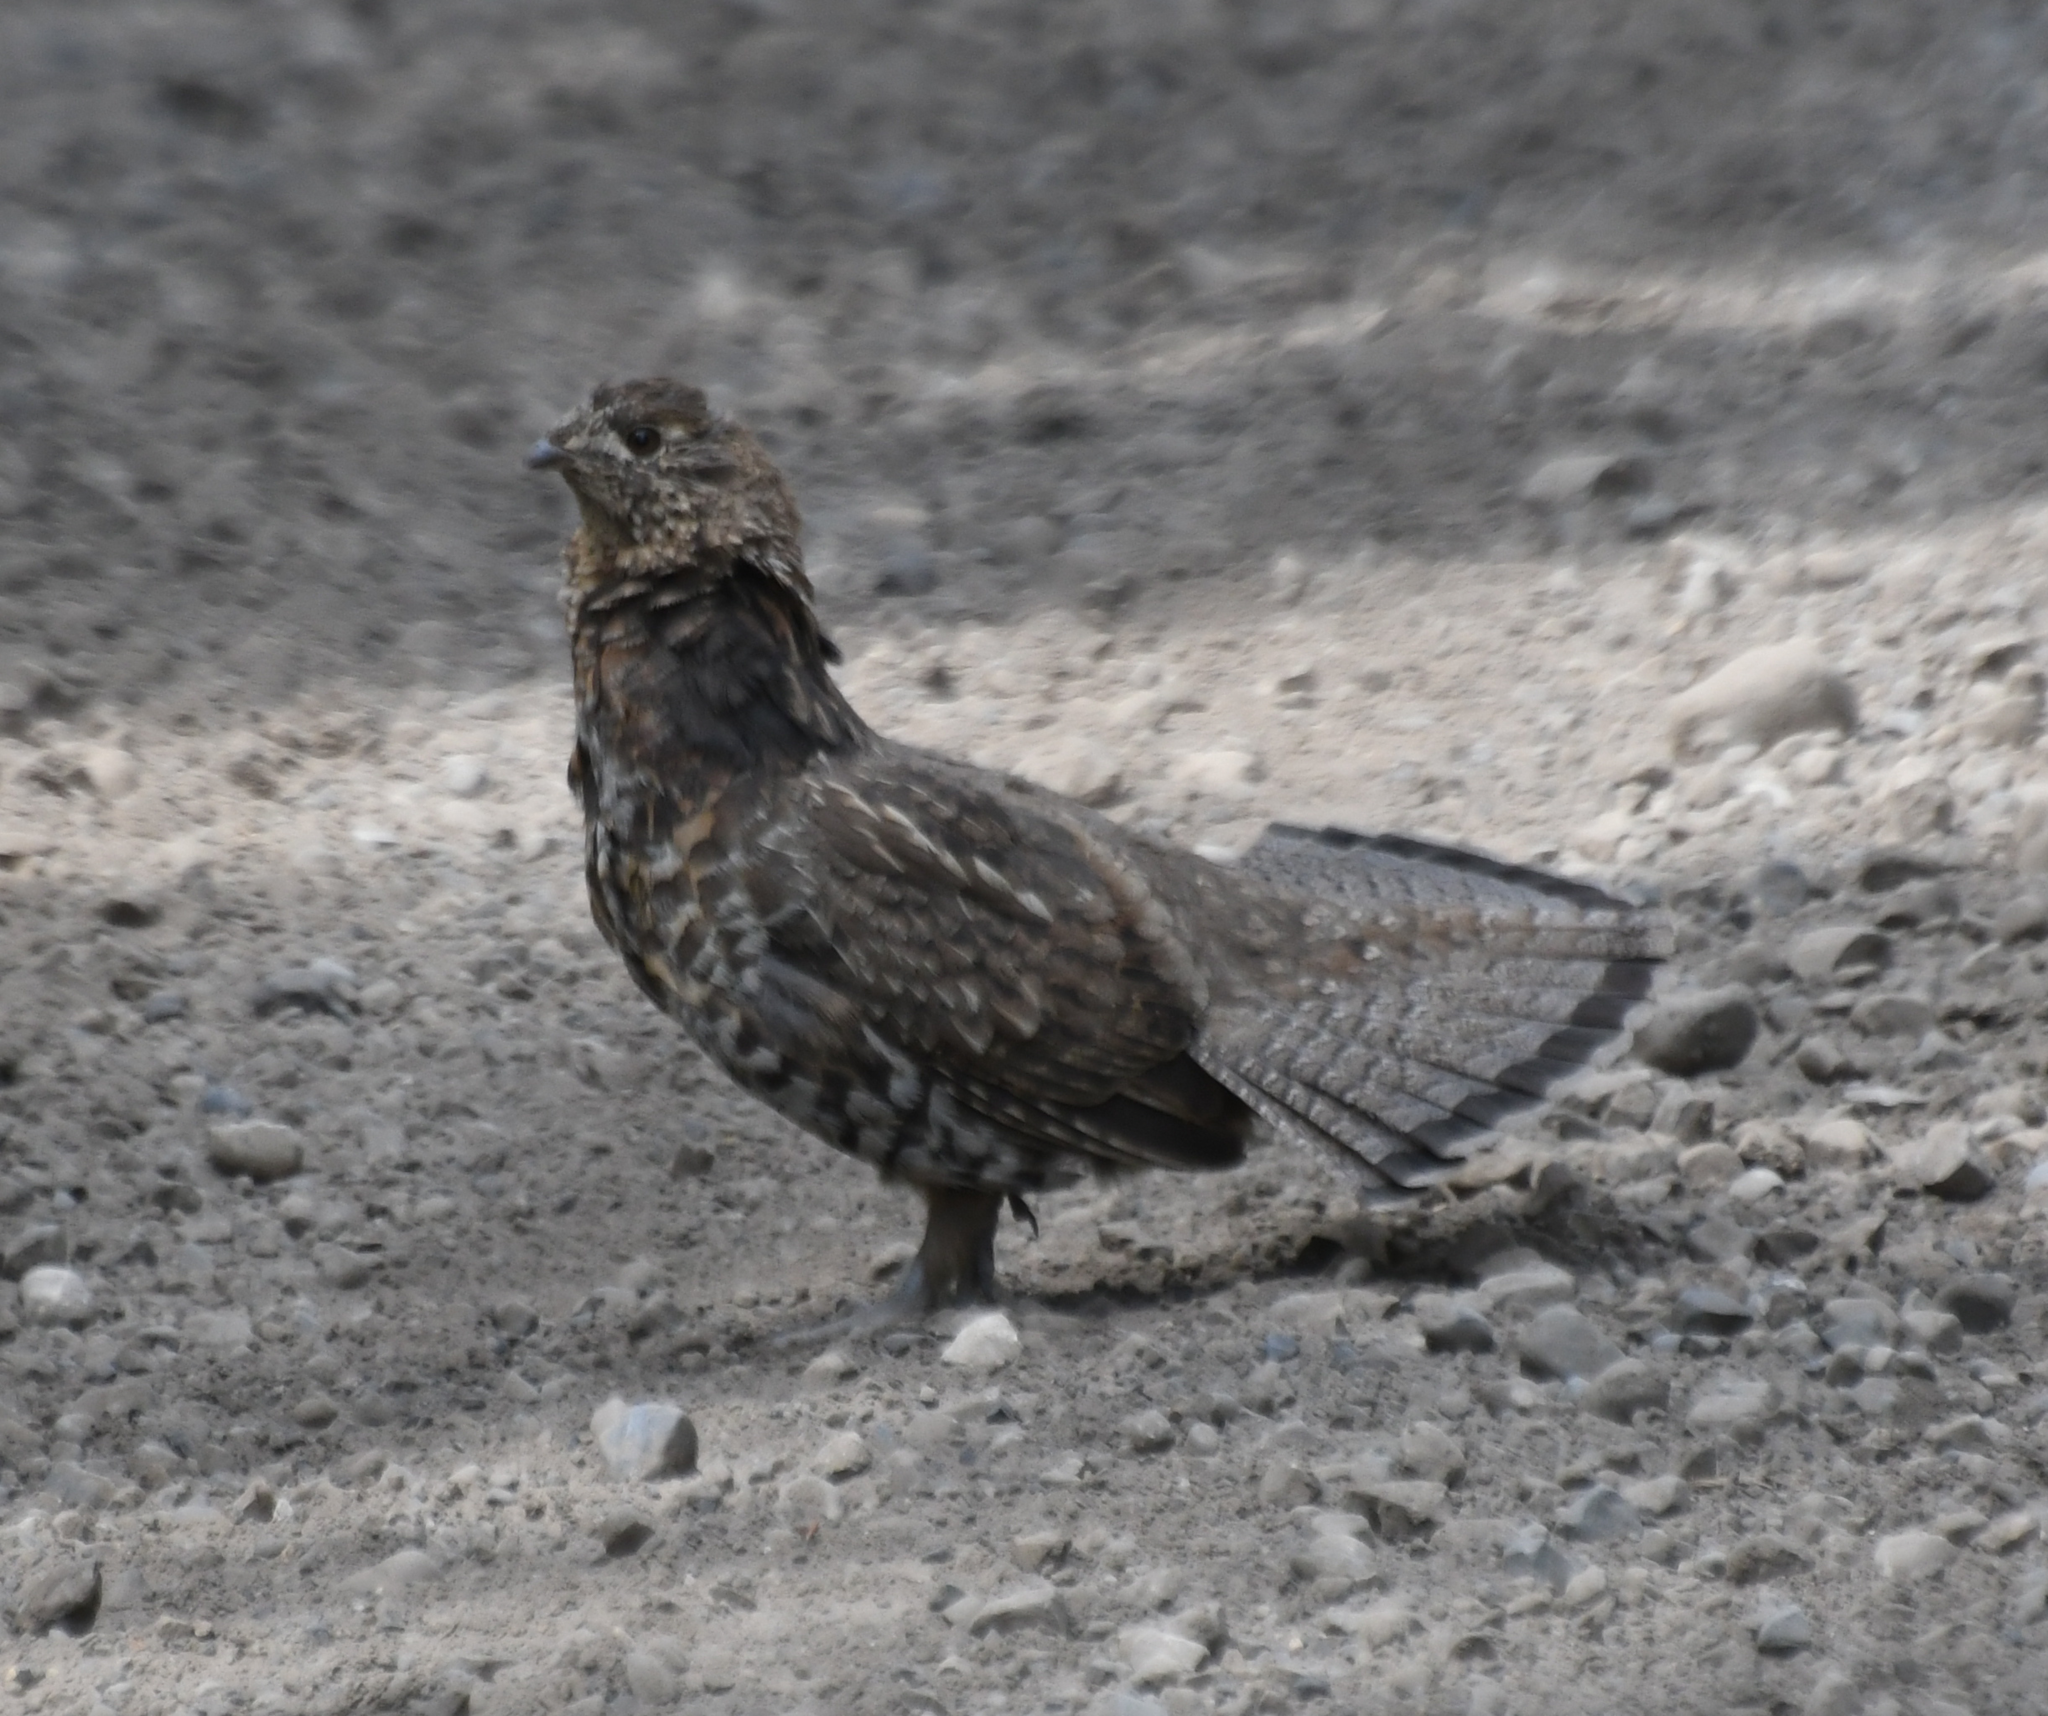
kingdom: Animalia
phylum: Chordata
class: Aves
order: Galliformes
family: Phasianidae
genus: Bonasa
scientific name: Bonasa umbellus
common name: Ruffed grouse
